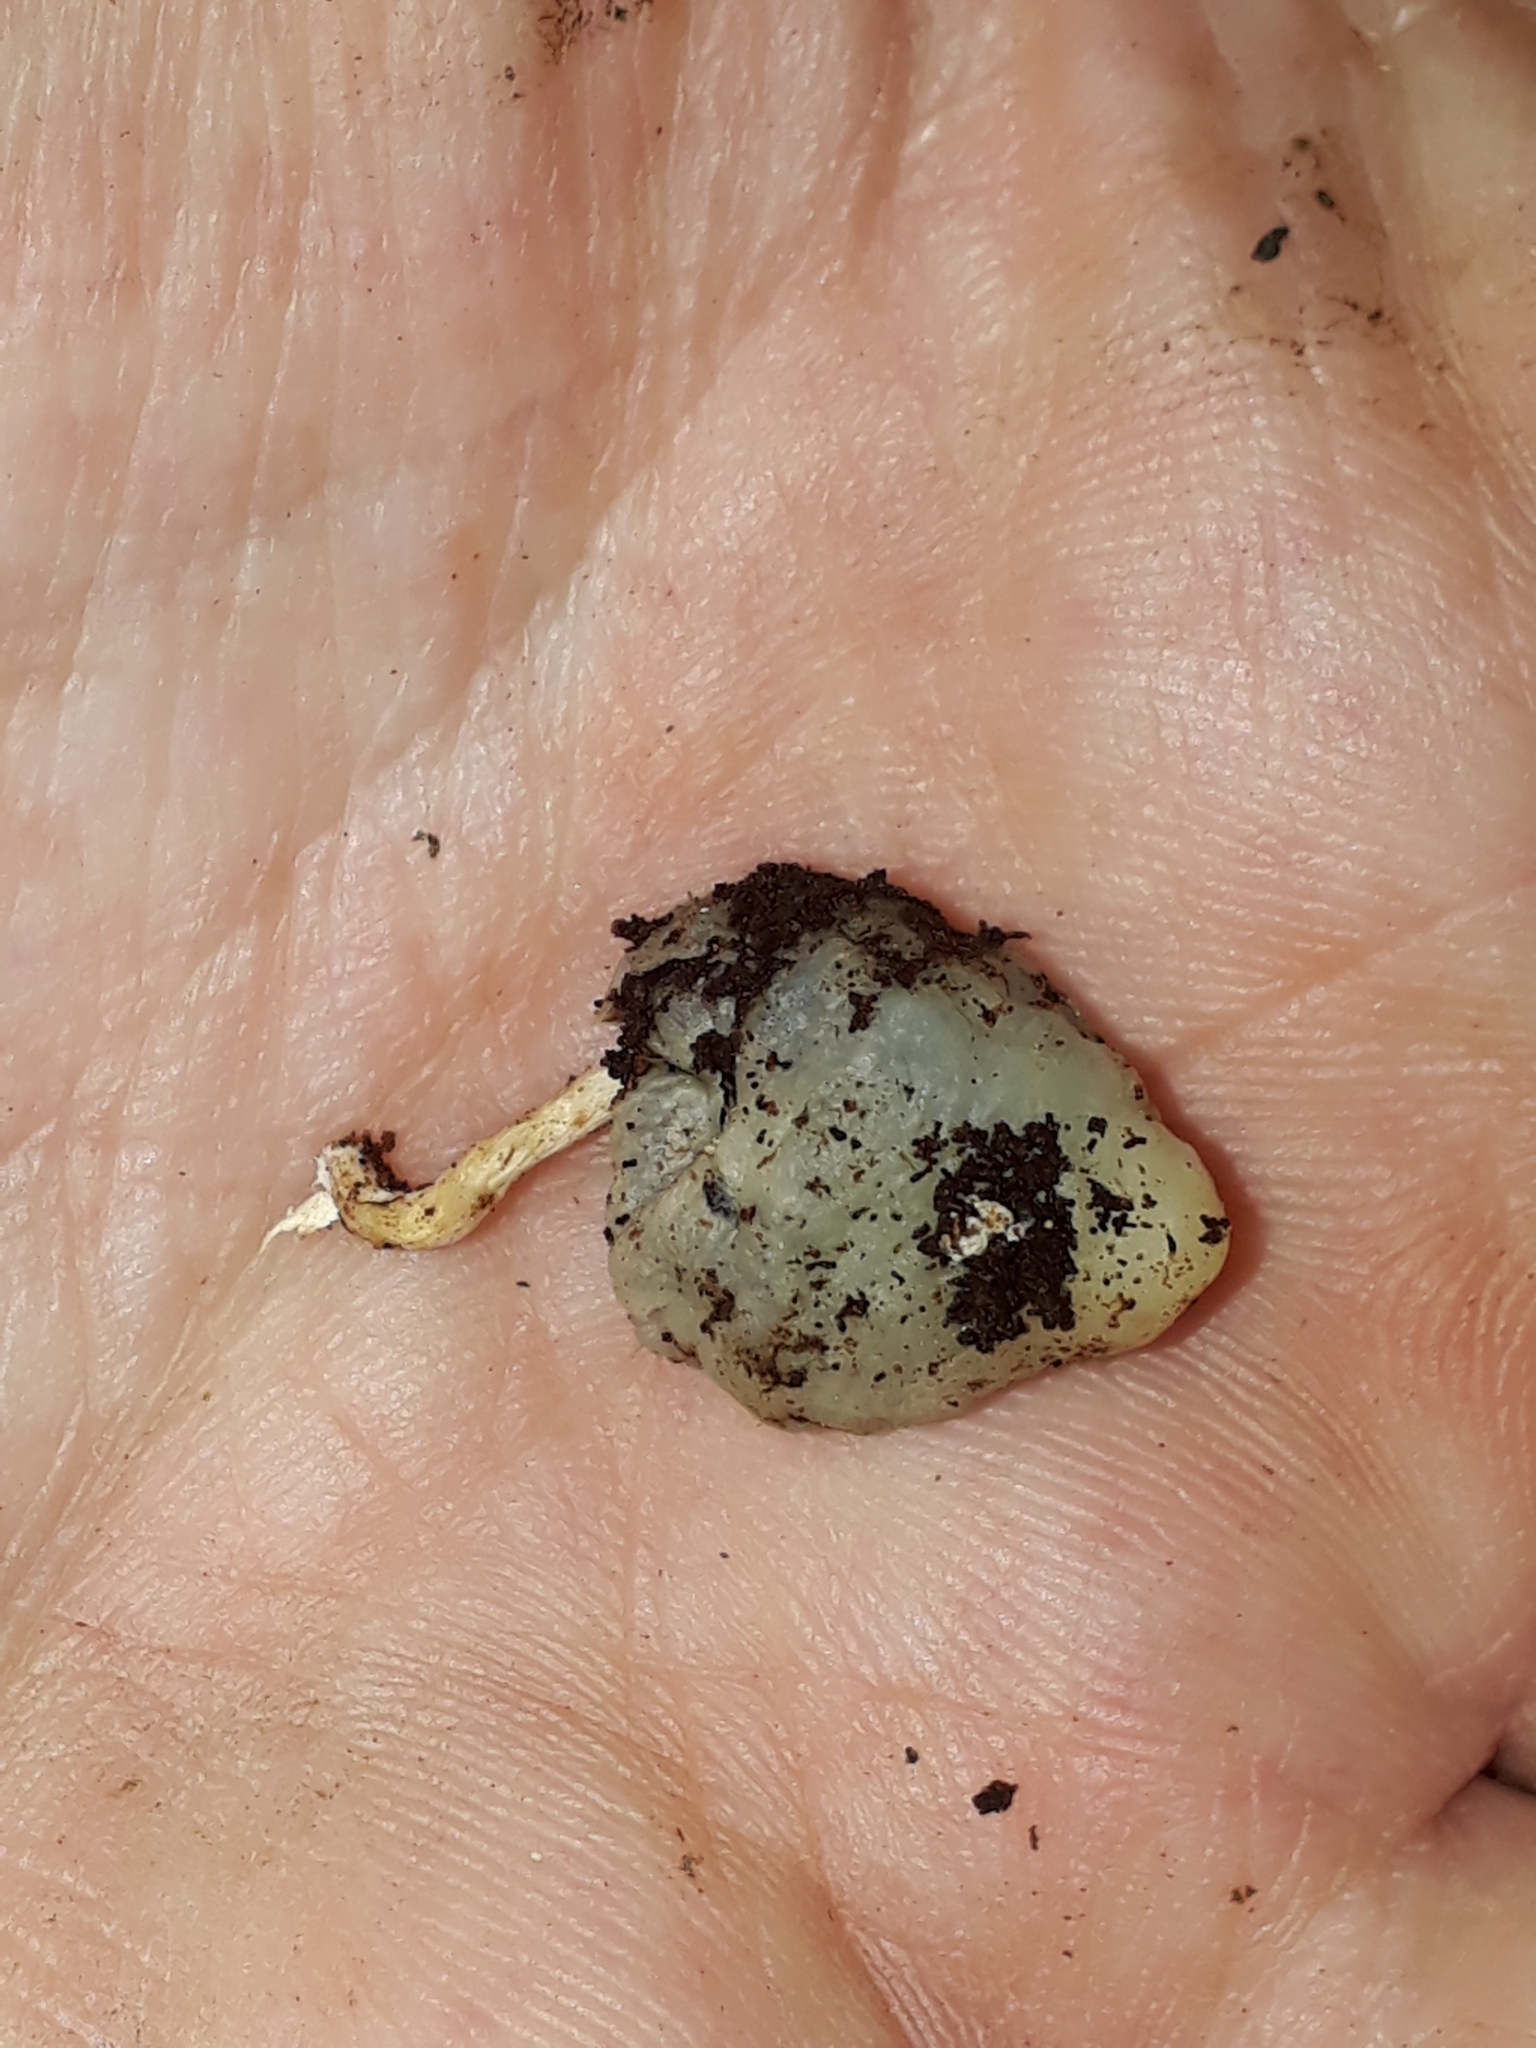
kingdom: Fungi
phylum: Basidiomycota
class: Agaricomycetes
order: Agaricales
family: Hymenogastraceae
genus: Psilocybe
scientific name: Psilocybe weraroa
